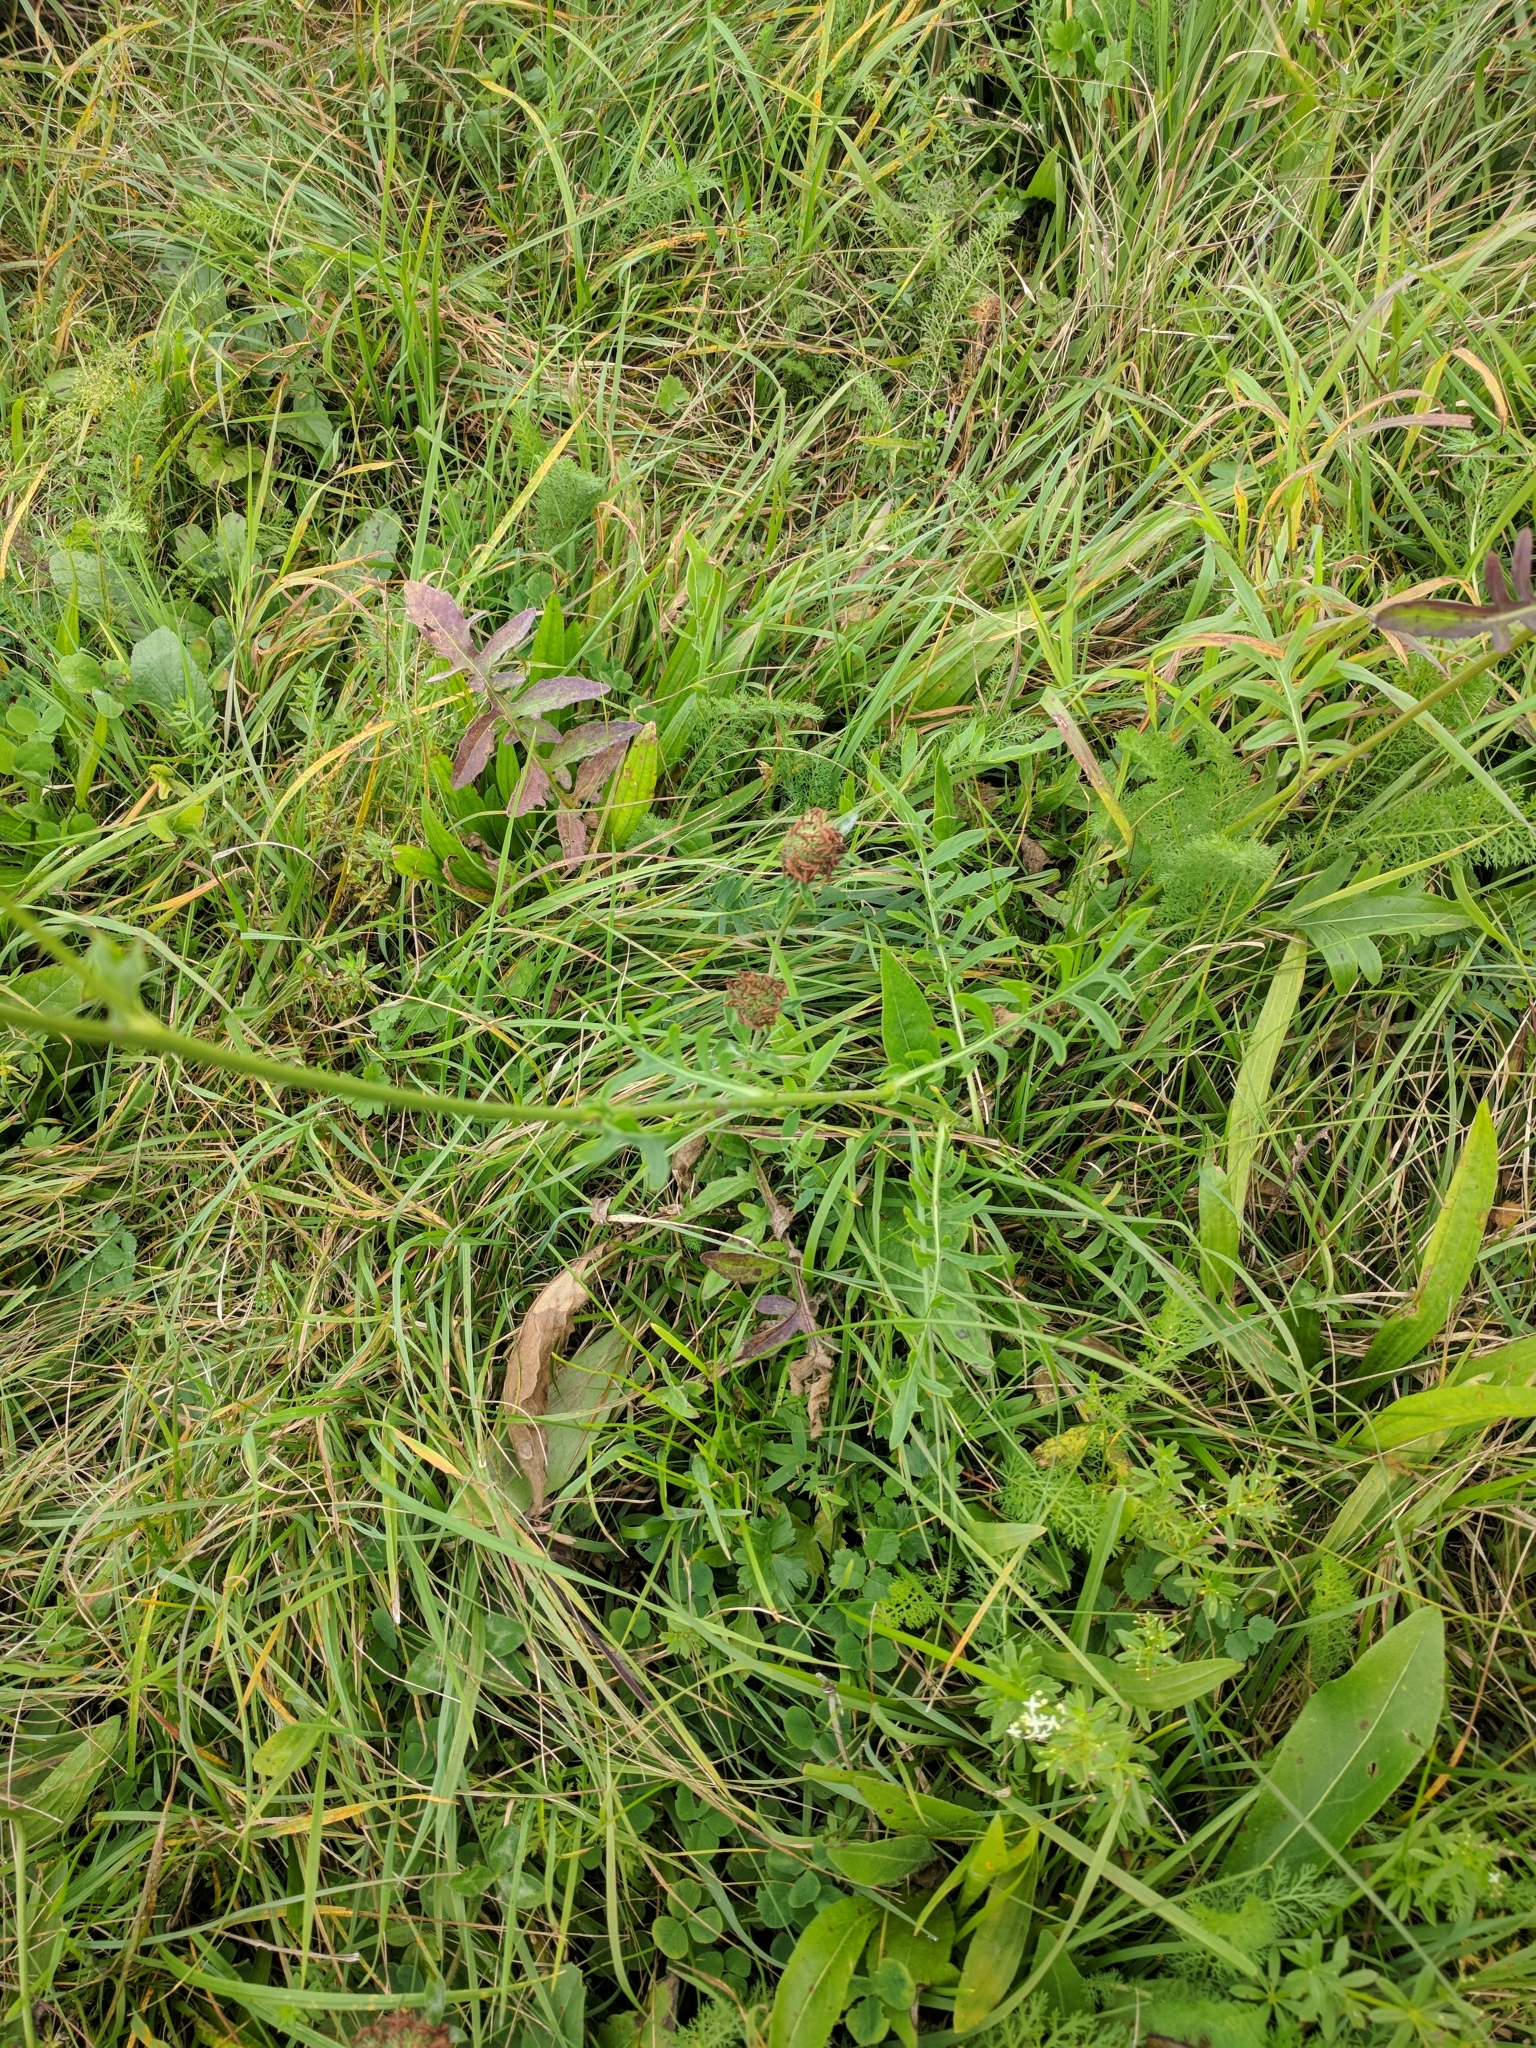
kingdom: Plantae
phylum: Tracheophyta
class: Magnoliopsida
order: Asterales
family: Asteraceae
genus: Centaurea
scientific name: Centaurea scabiosa
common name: Greater knapweed
